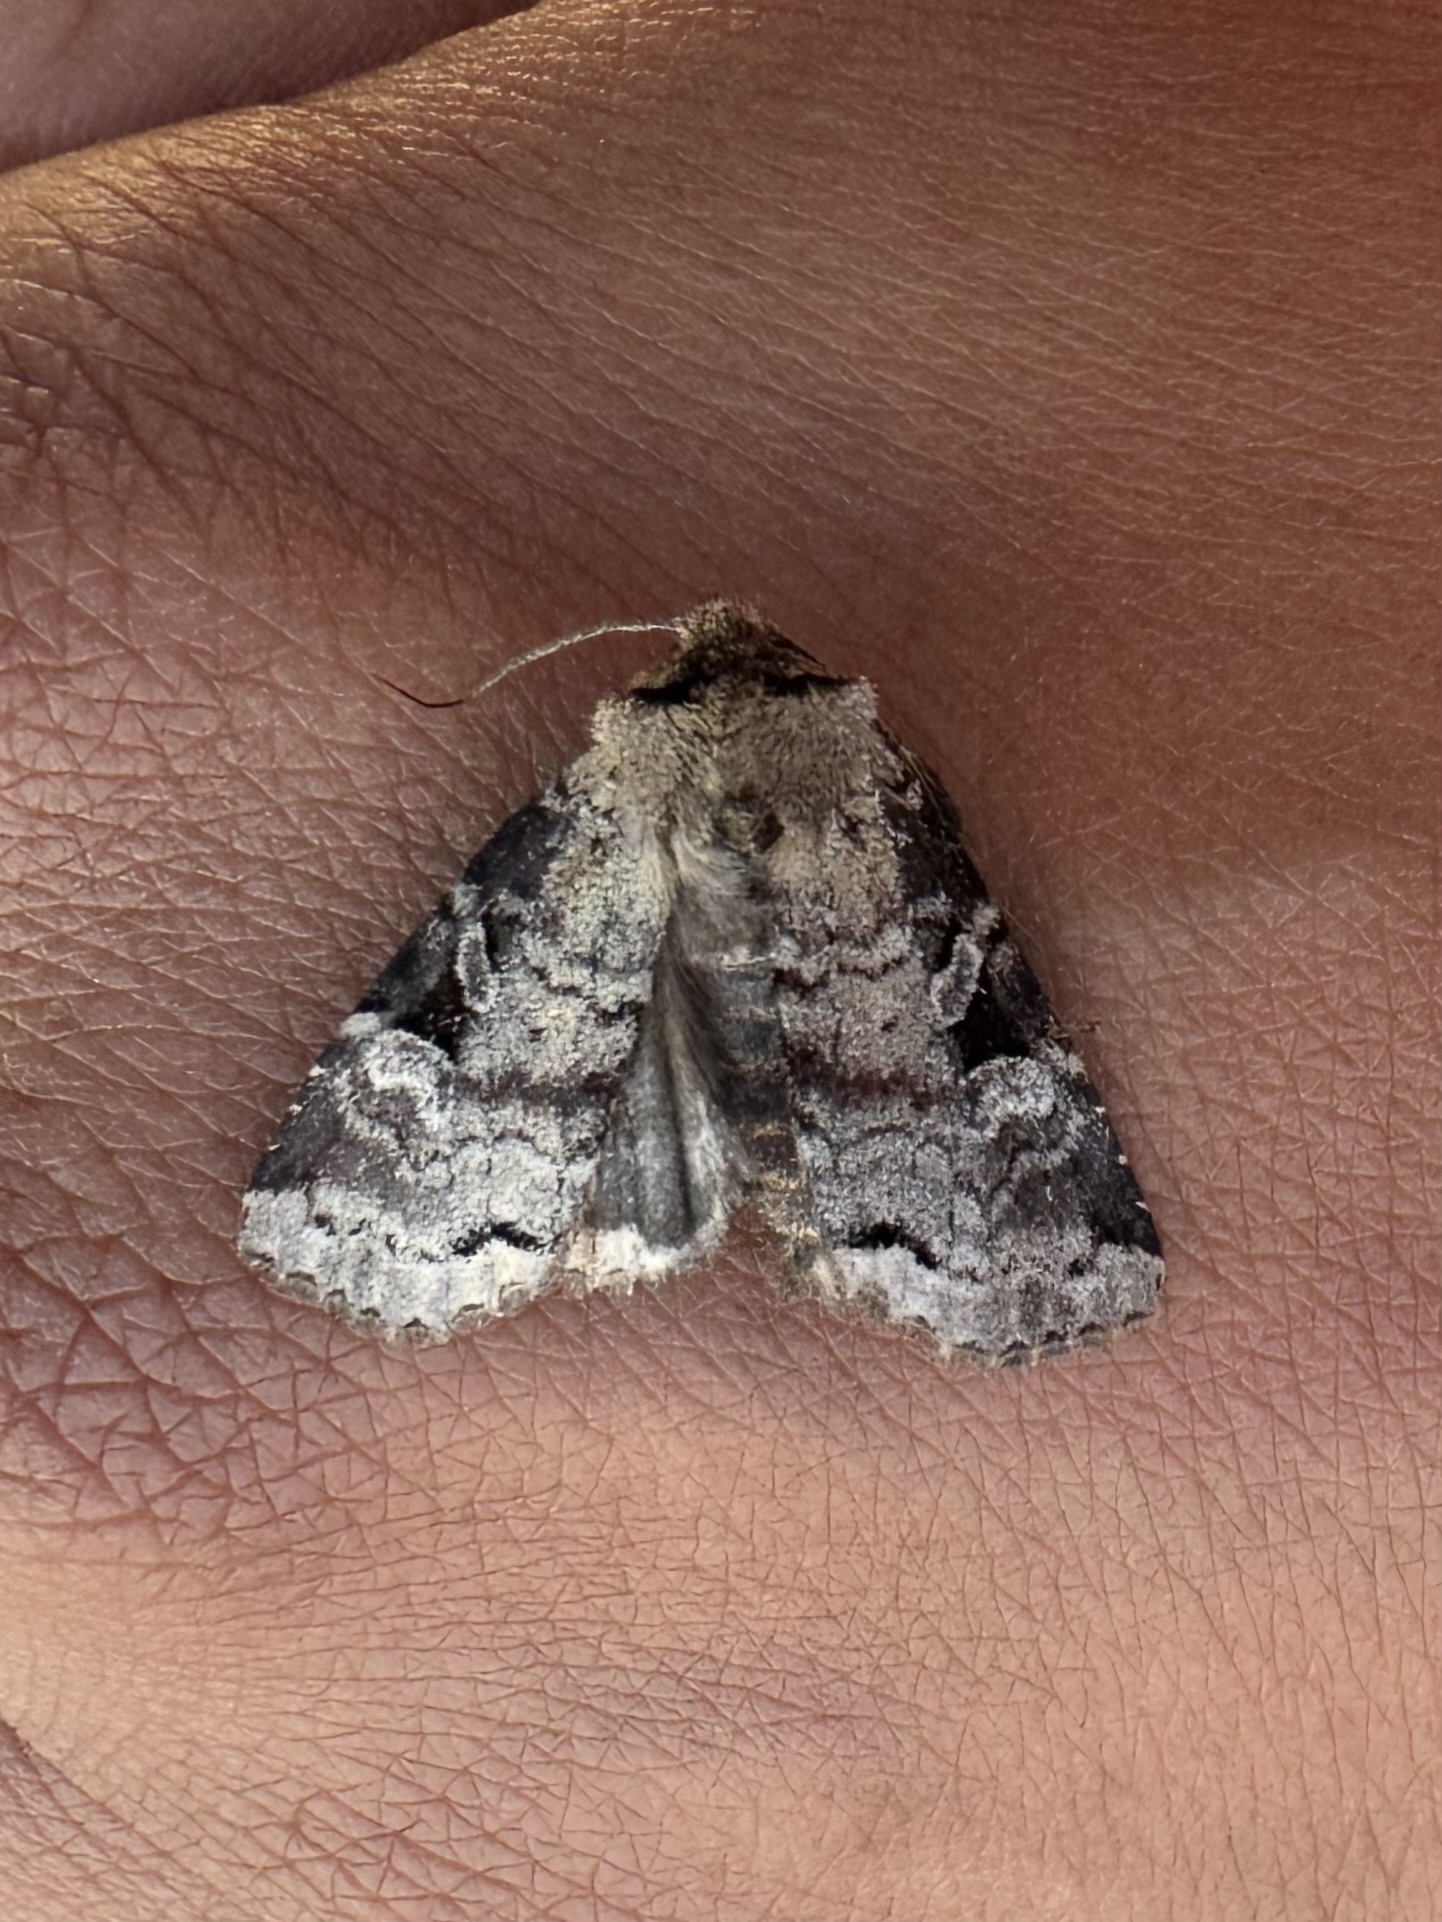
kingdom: Animalia
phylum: Arthropoda
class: Insecta
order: Lepidoptera
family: Noctuidae
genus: Hillia
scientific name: Hillia iris
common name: Iris rover moth
